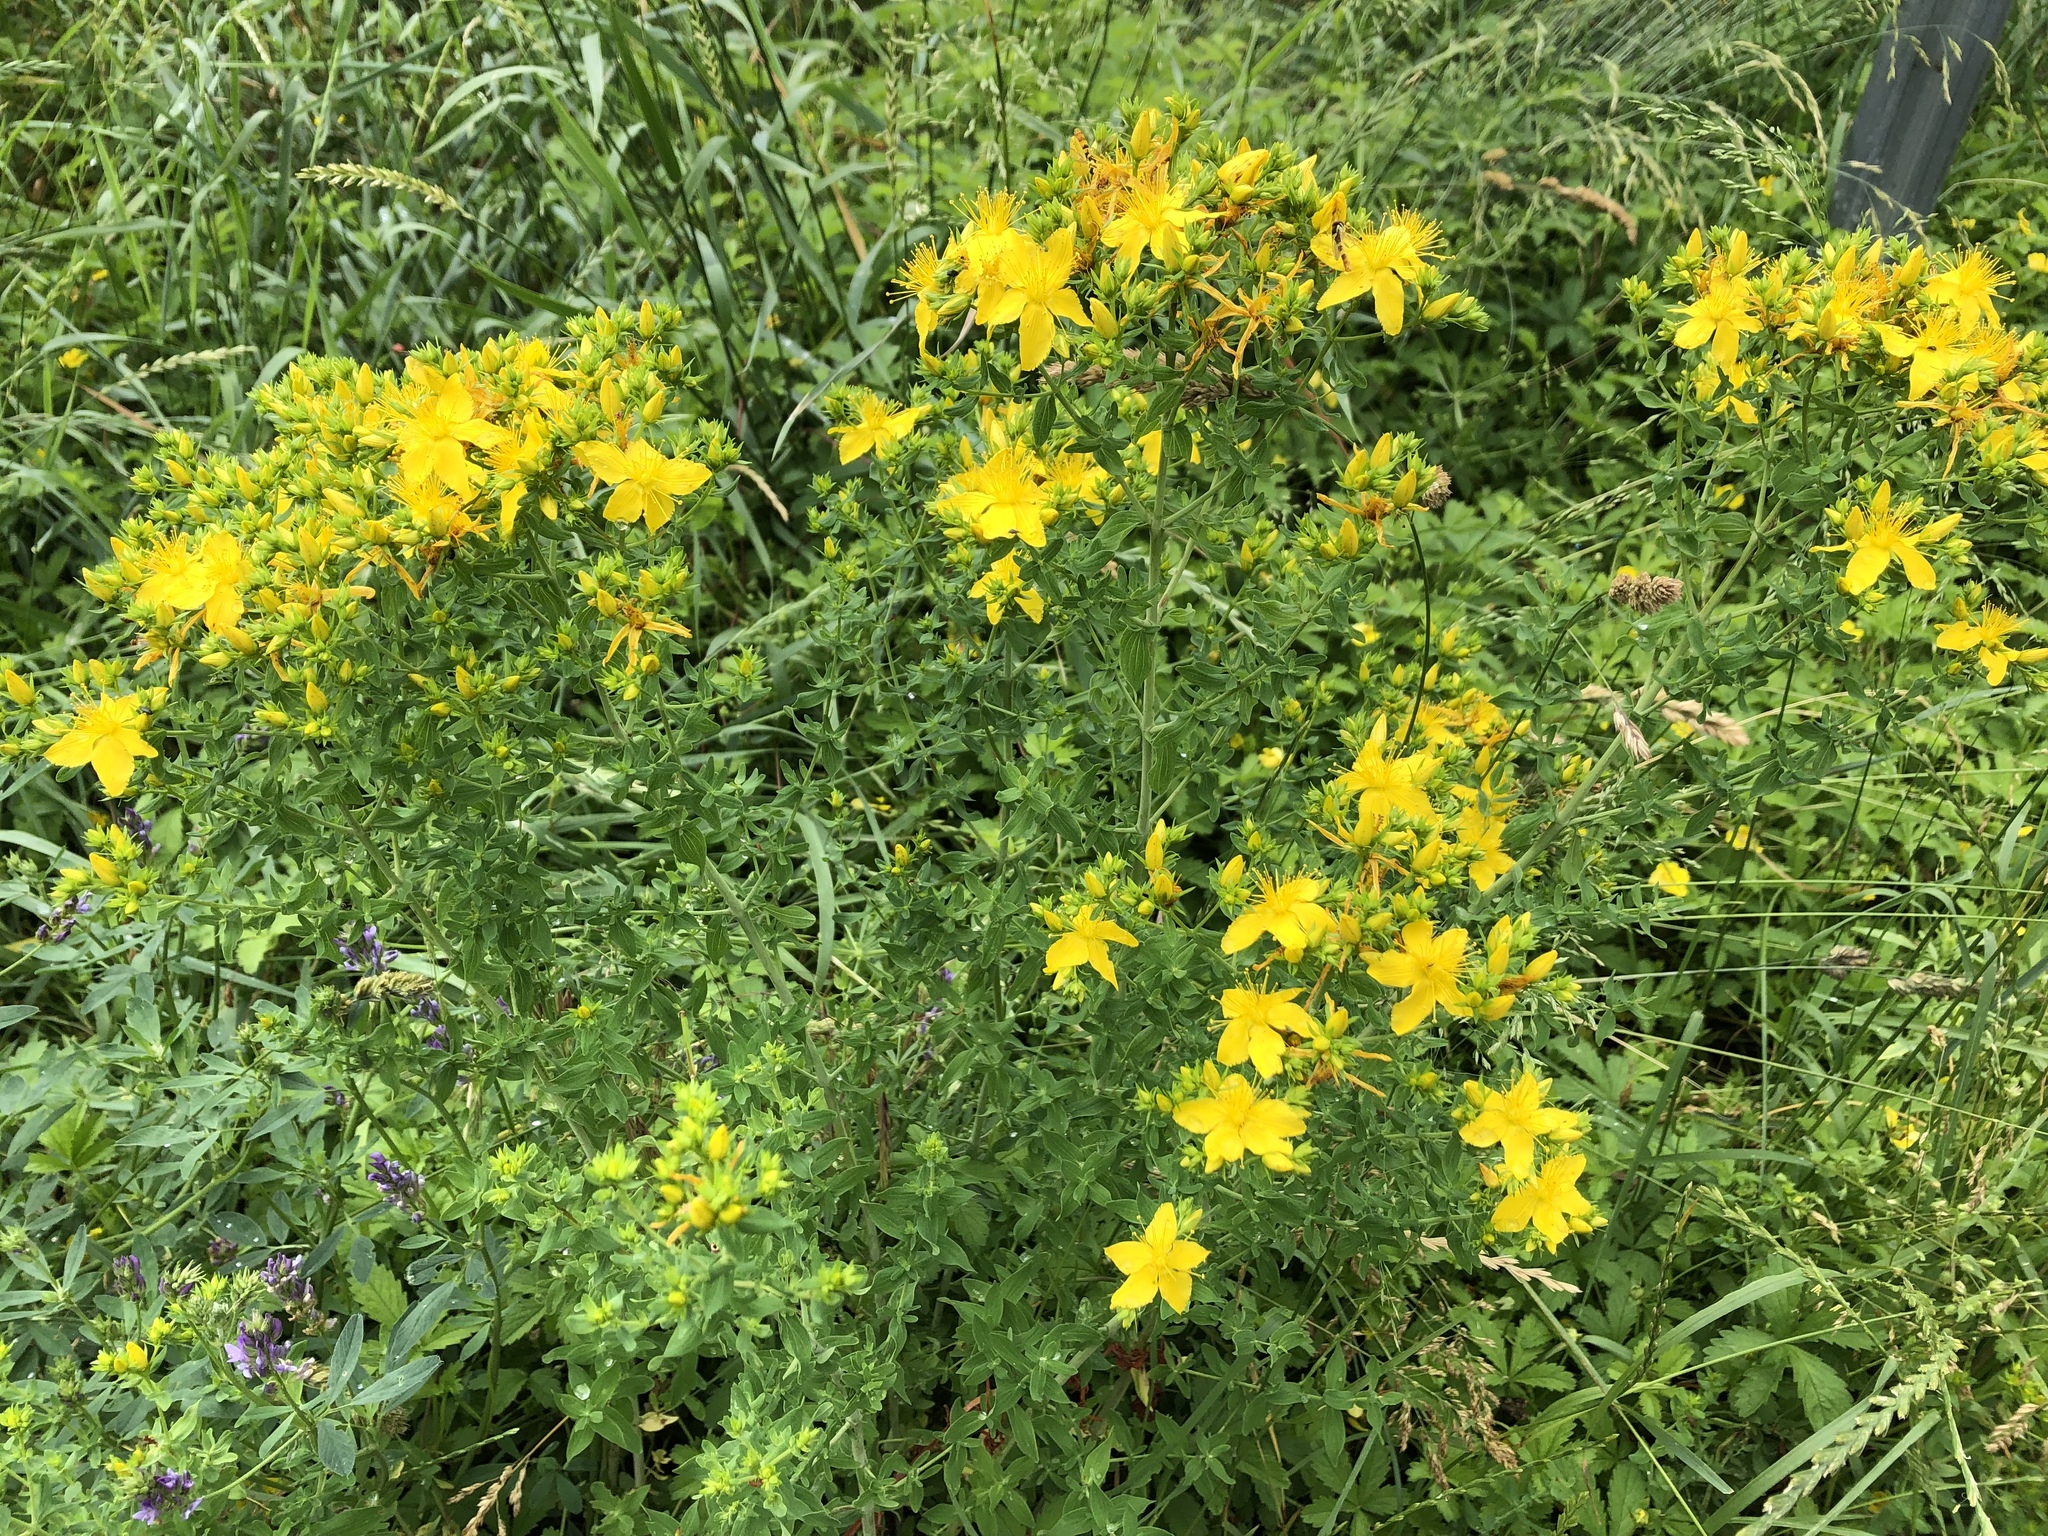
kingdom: Plantae
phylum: Tracheophyta
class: Magnoliopsida
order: Malpighiales
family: Hypericaceae
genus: Hypericum
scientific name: Hypericum perforatum
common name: Common st. johnswort
